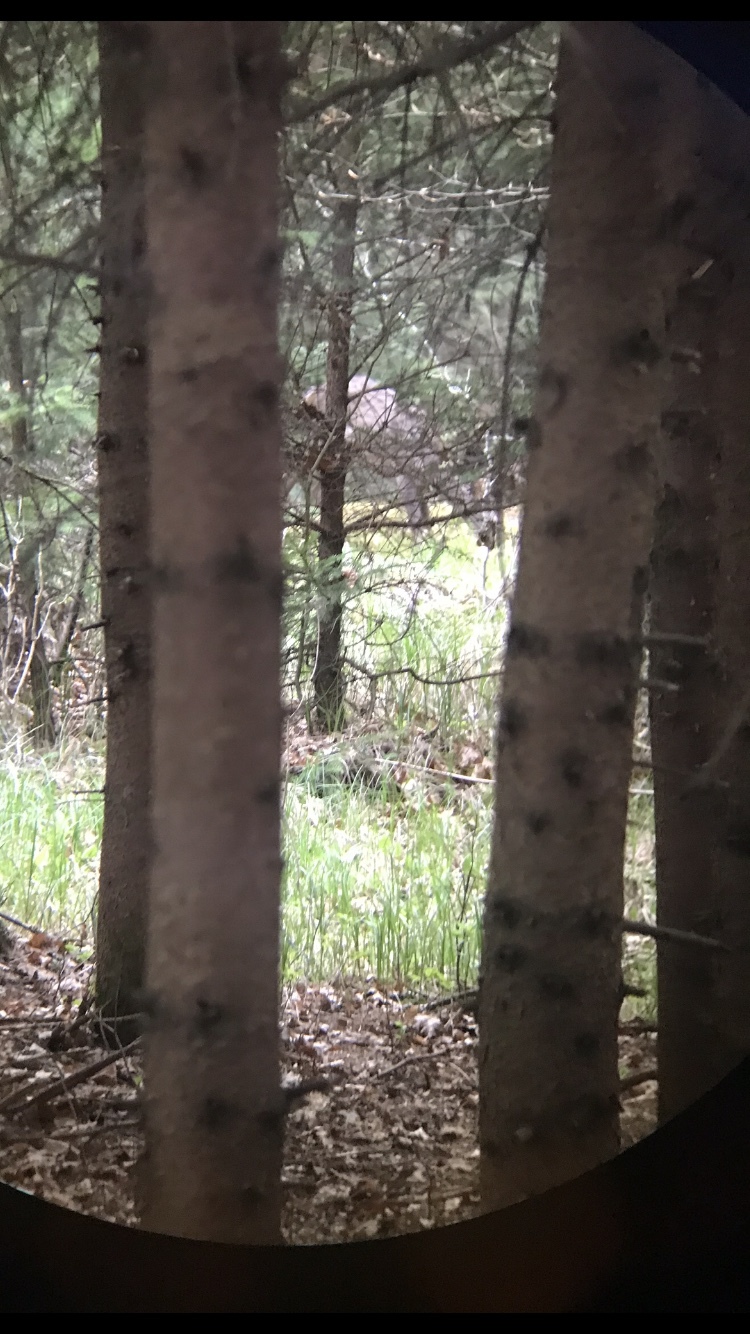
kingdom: Animalia
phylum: Chordata
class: Mammalia
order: Artiodactyla
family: Cervidae
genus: Capreolus
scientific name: Capreolus capreolus
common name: Western roe deer
